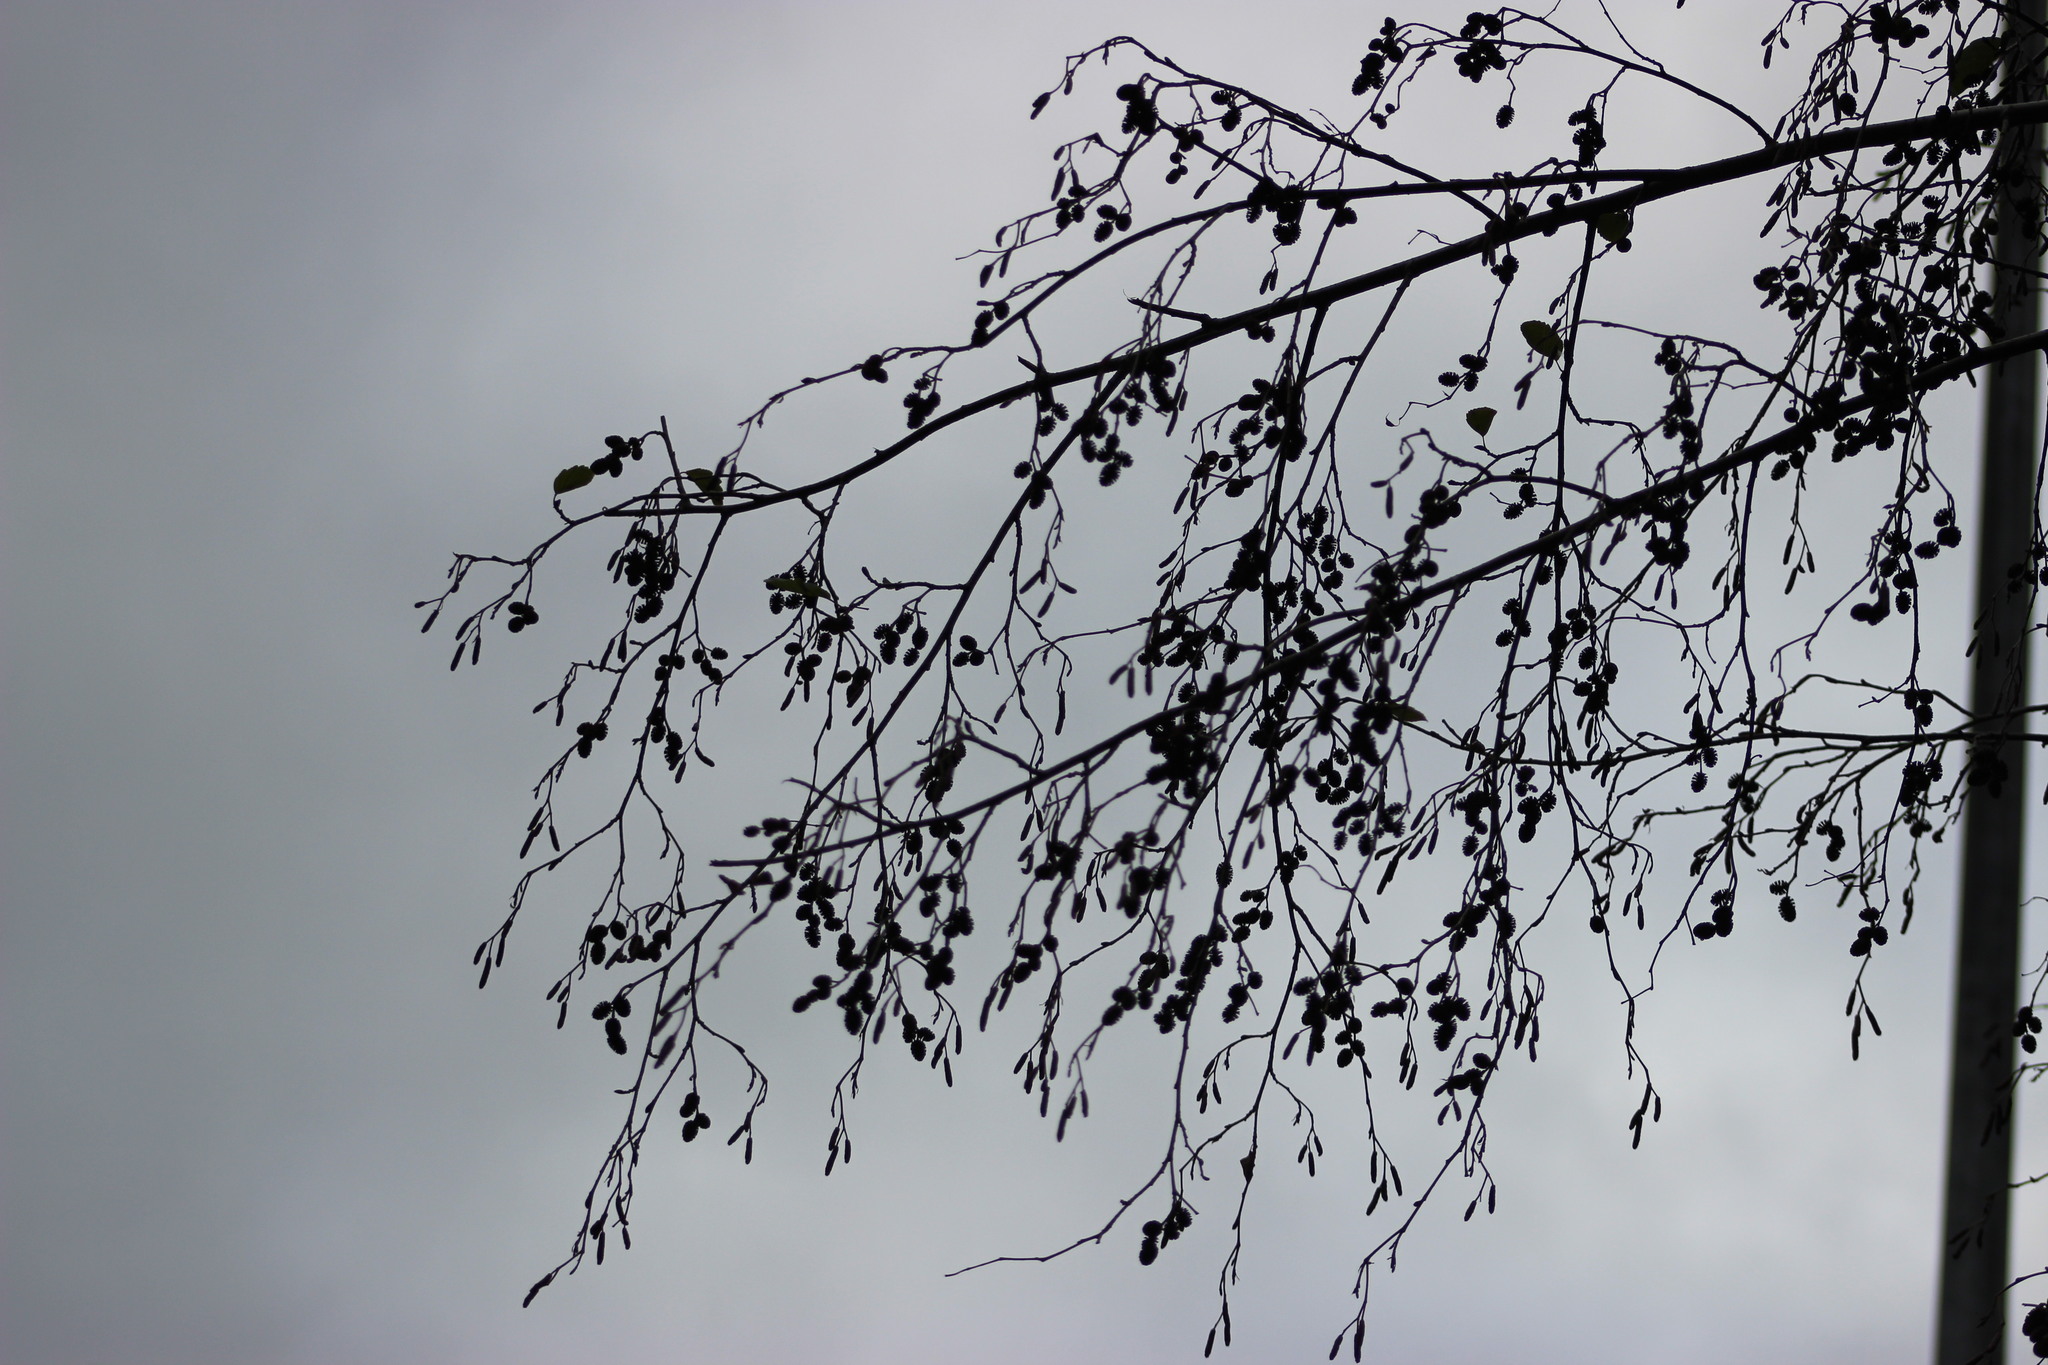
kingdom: Plantae
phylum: Tracheophyta
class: Magnoliopsida
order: Fagales
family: Betulaceae
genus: Alnus
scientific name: Alnus incana
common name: Grey alder
